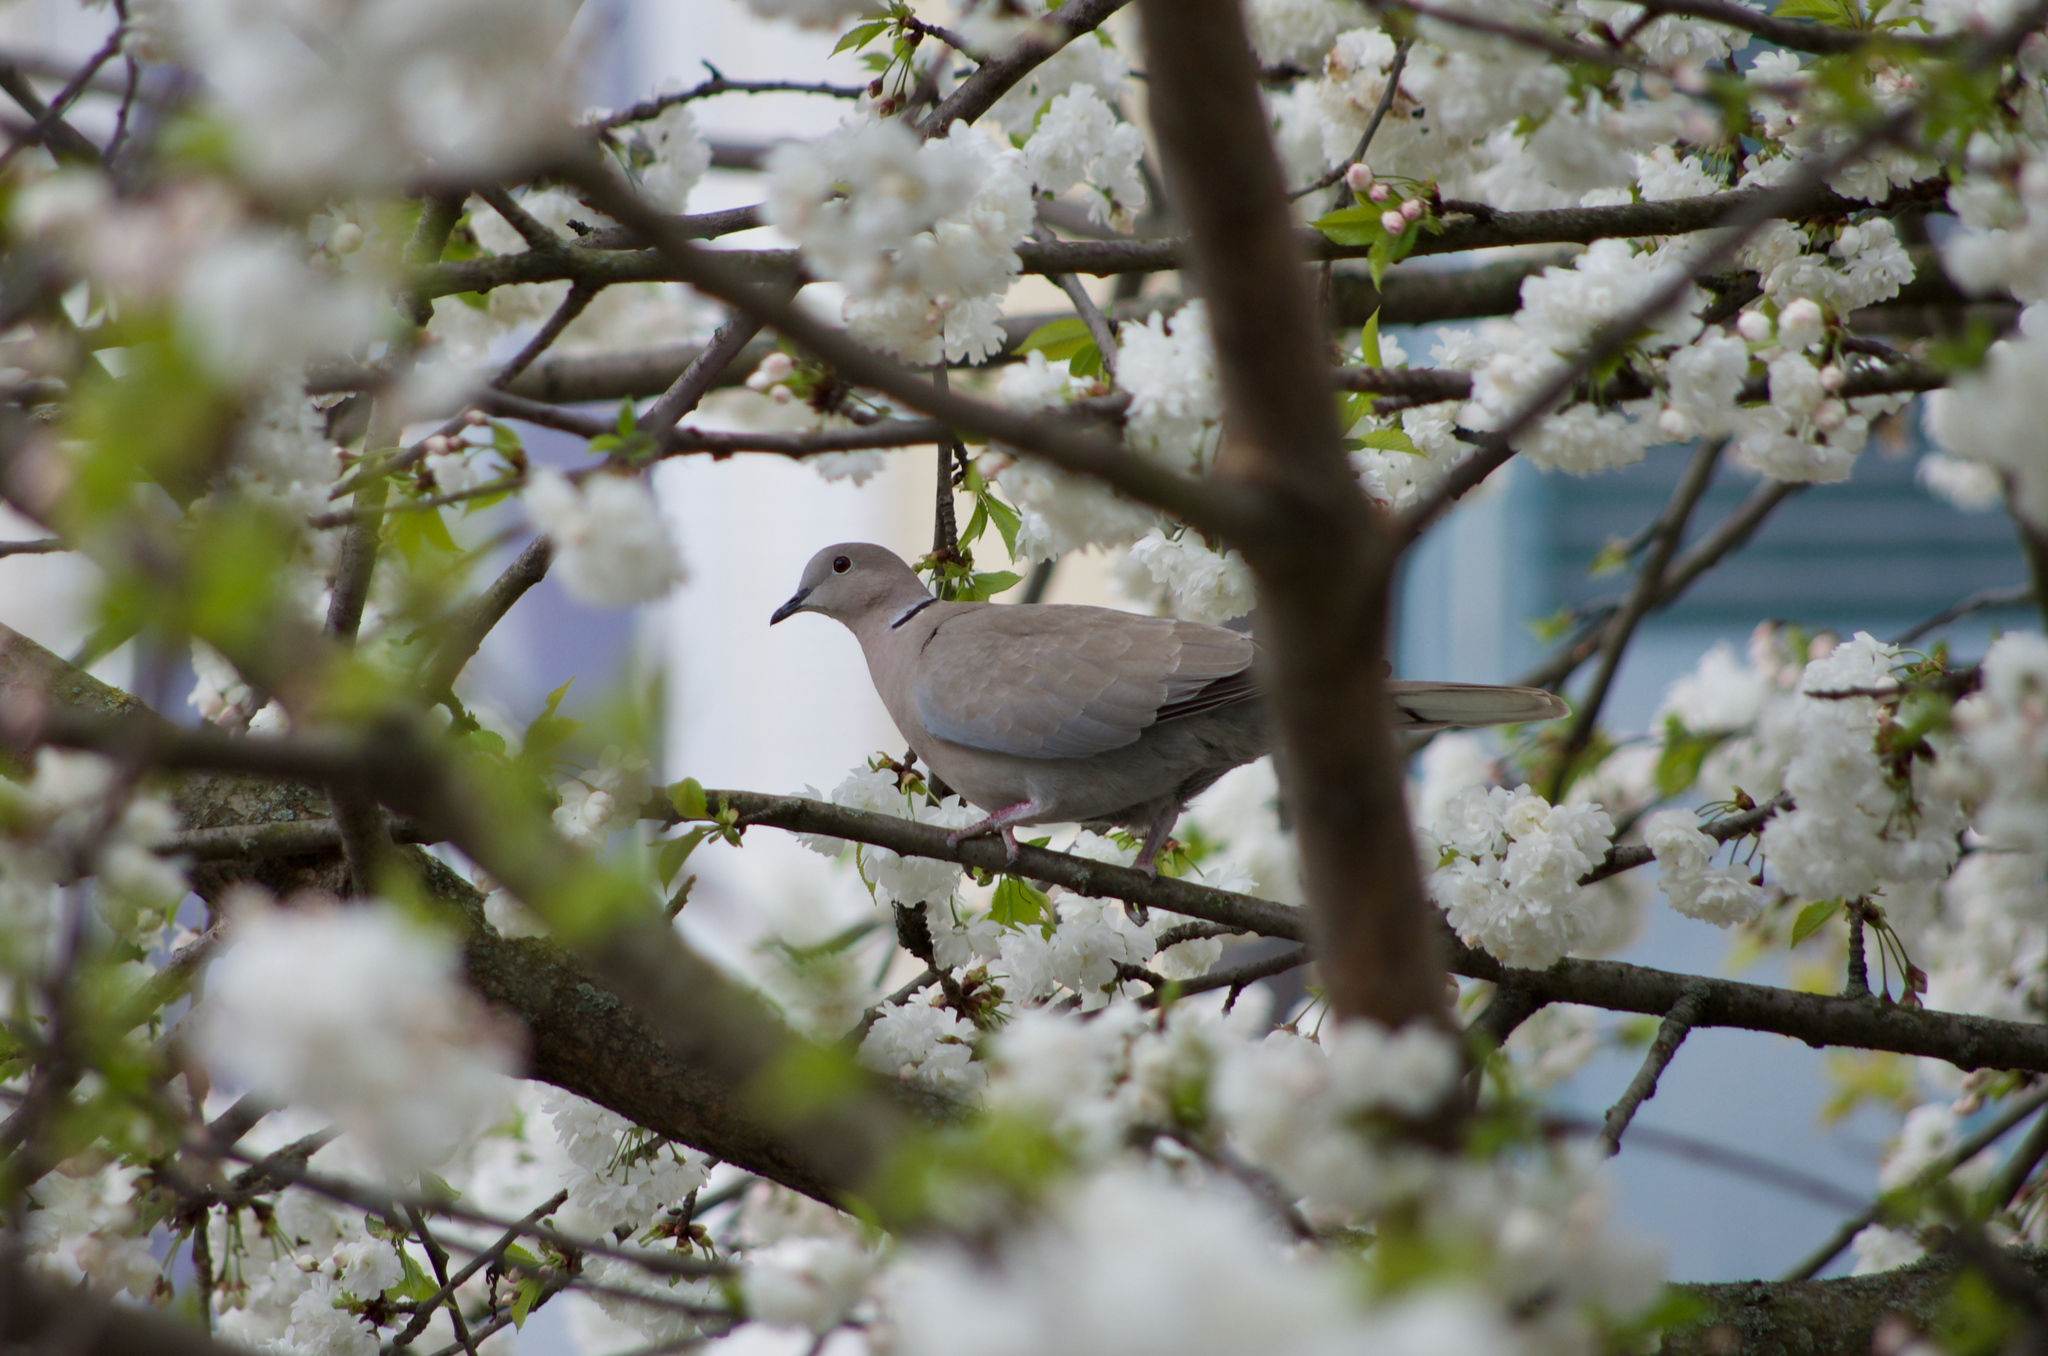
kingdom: Animalia
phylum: Chordata
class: Aves
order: Columbiformes
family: Columbidae
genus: Streptopelia
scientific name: Streptopelia decaocto
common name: Eurasian collared dove
